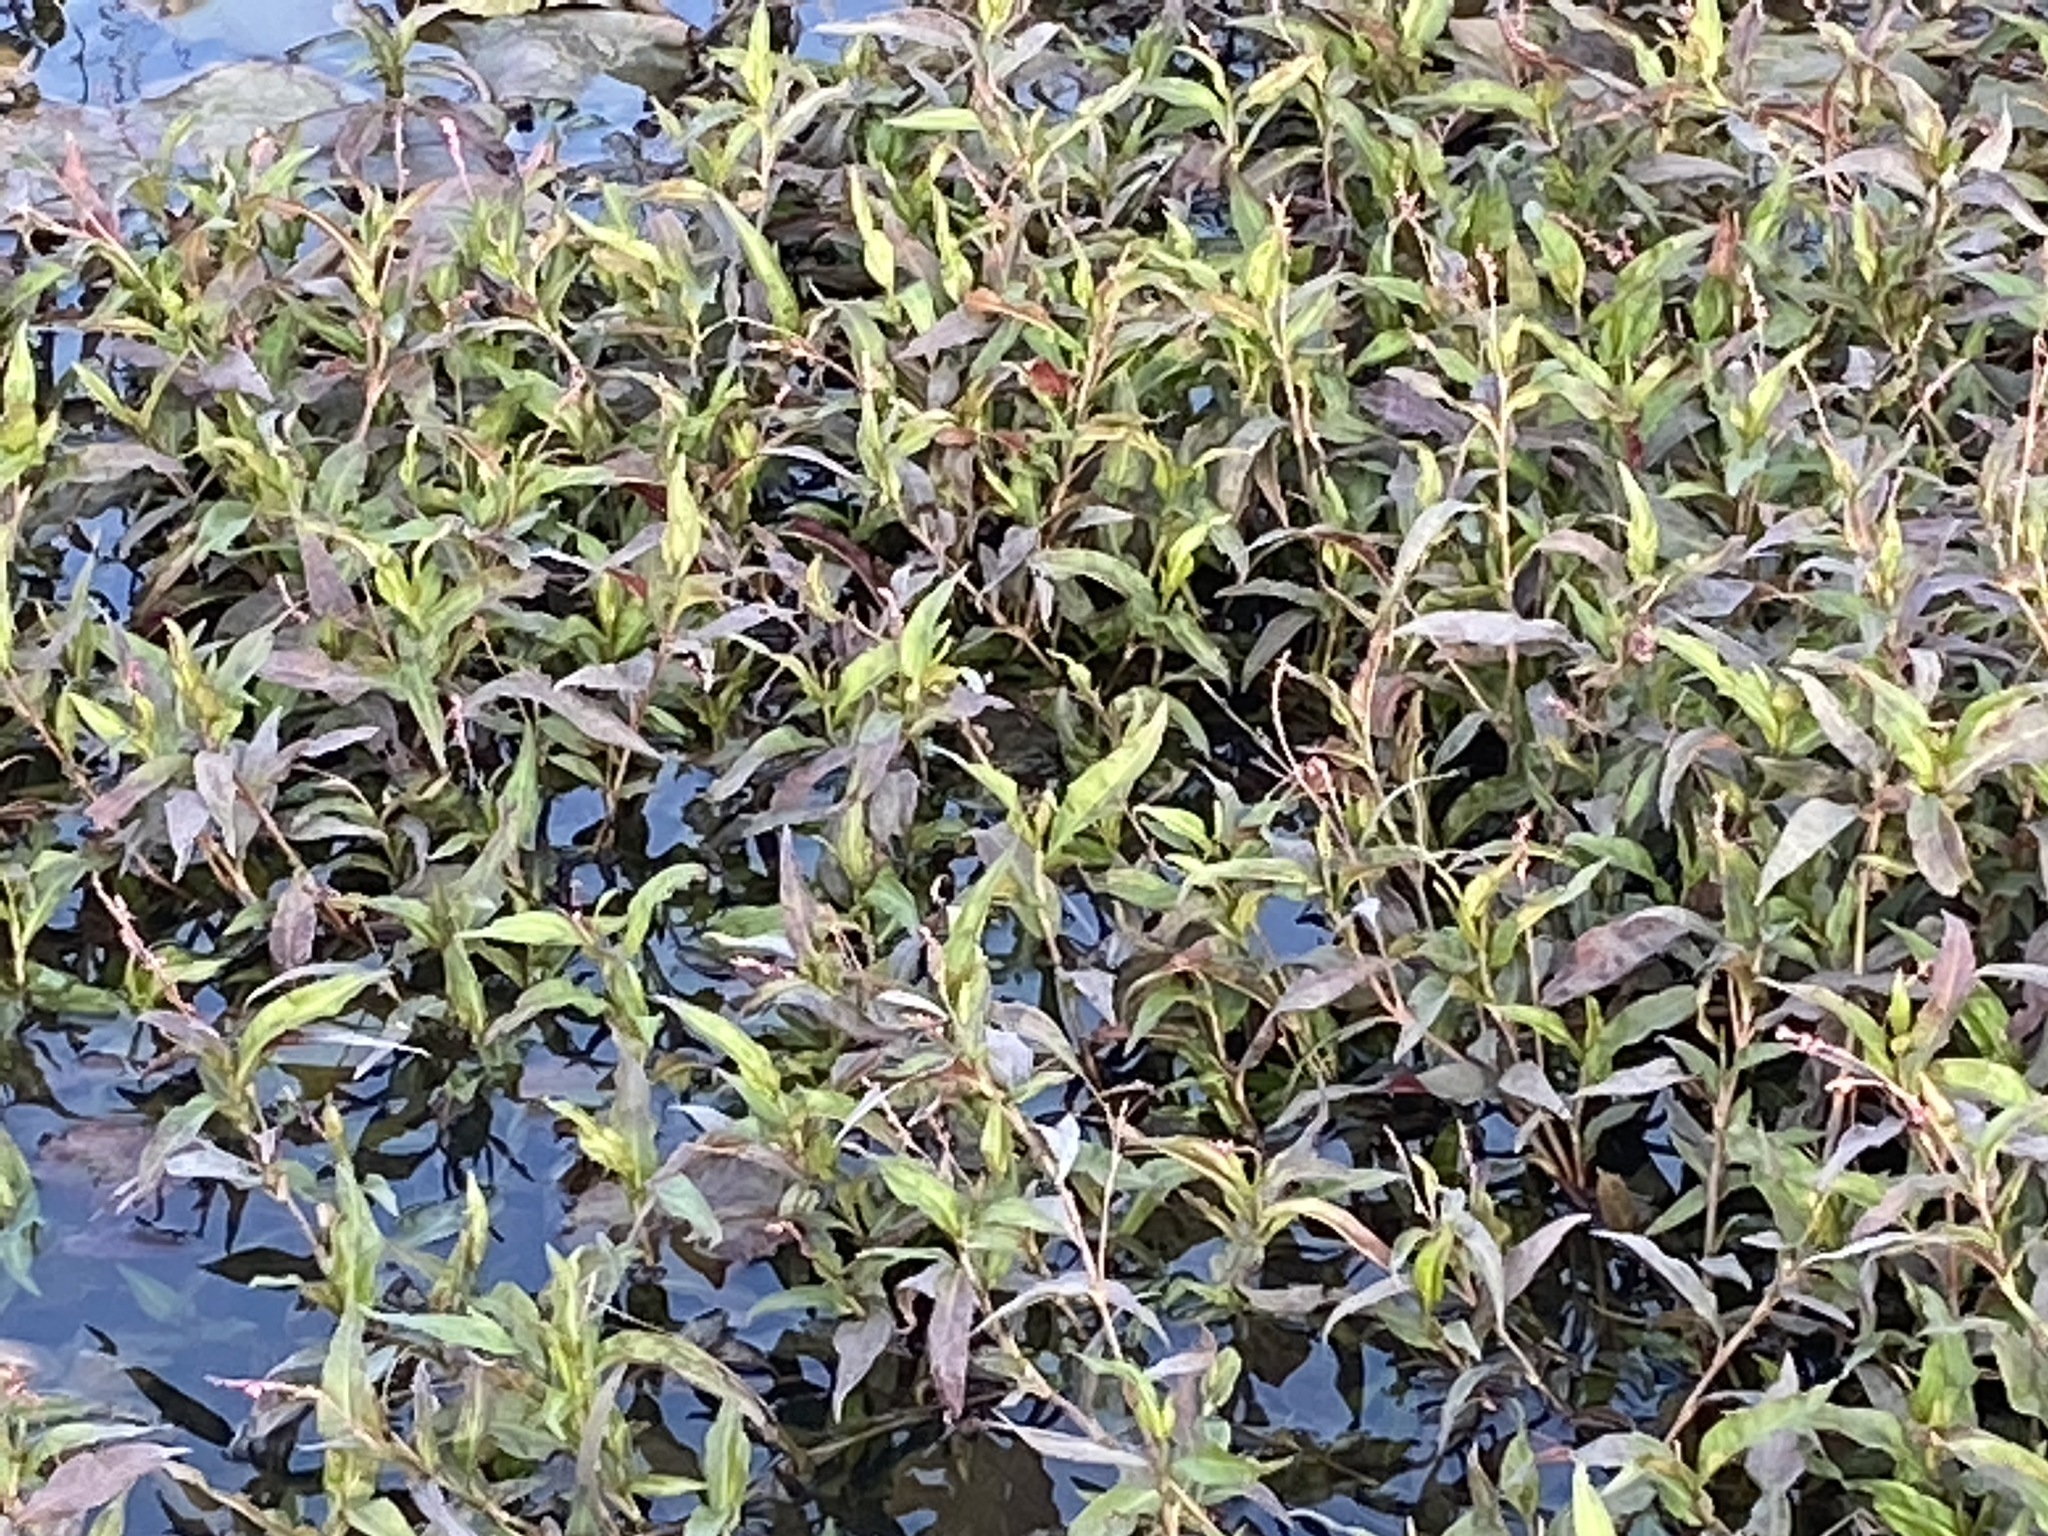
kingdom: Plantae
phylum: Tracheophyta
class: Magnoliopsida
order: Caryophyllales
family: Polygonaceae
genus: Persicaria
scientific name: Persicaria decipiens
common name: Willow-weed
